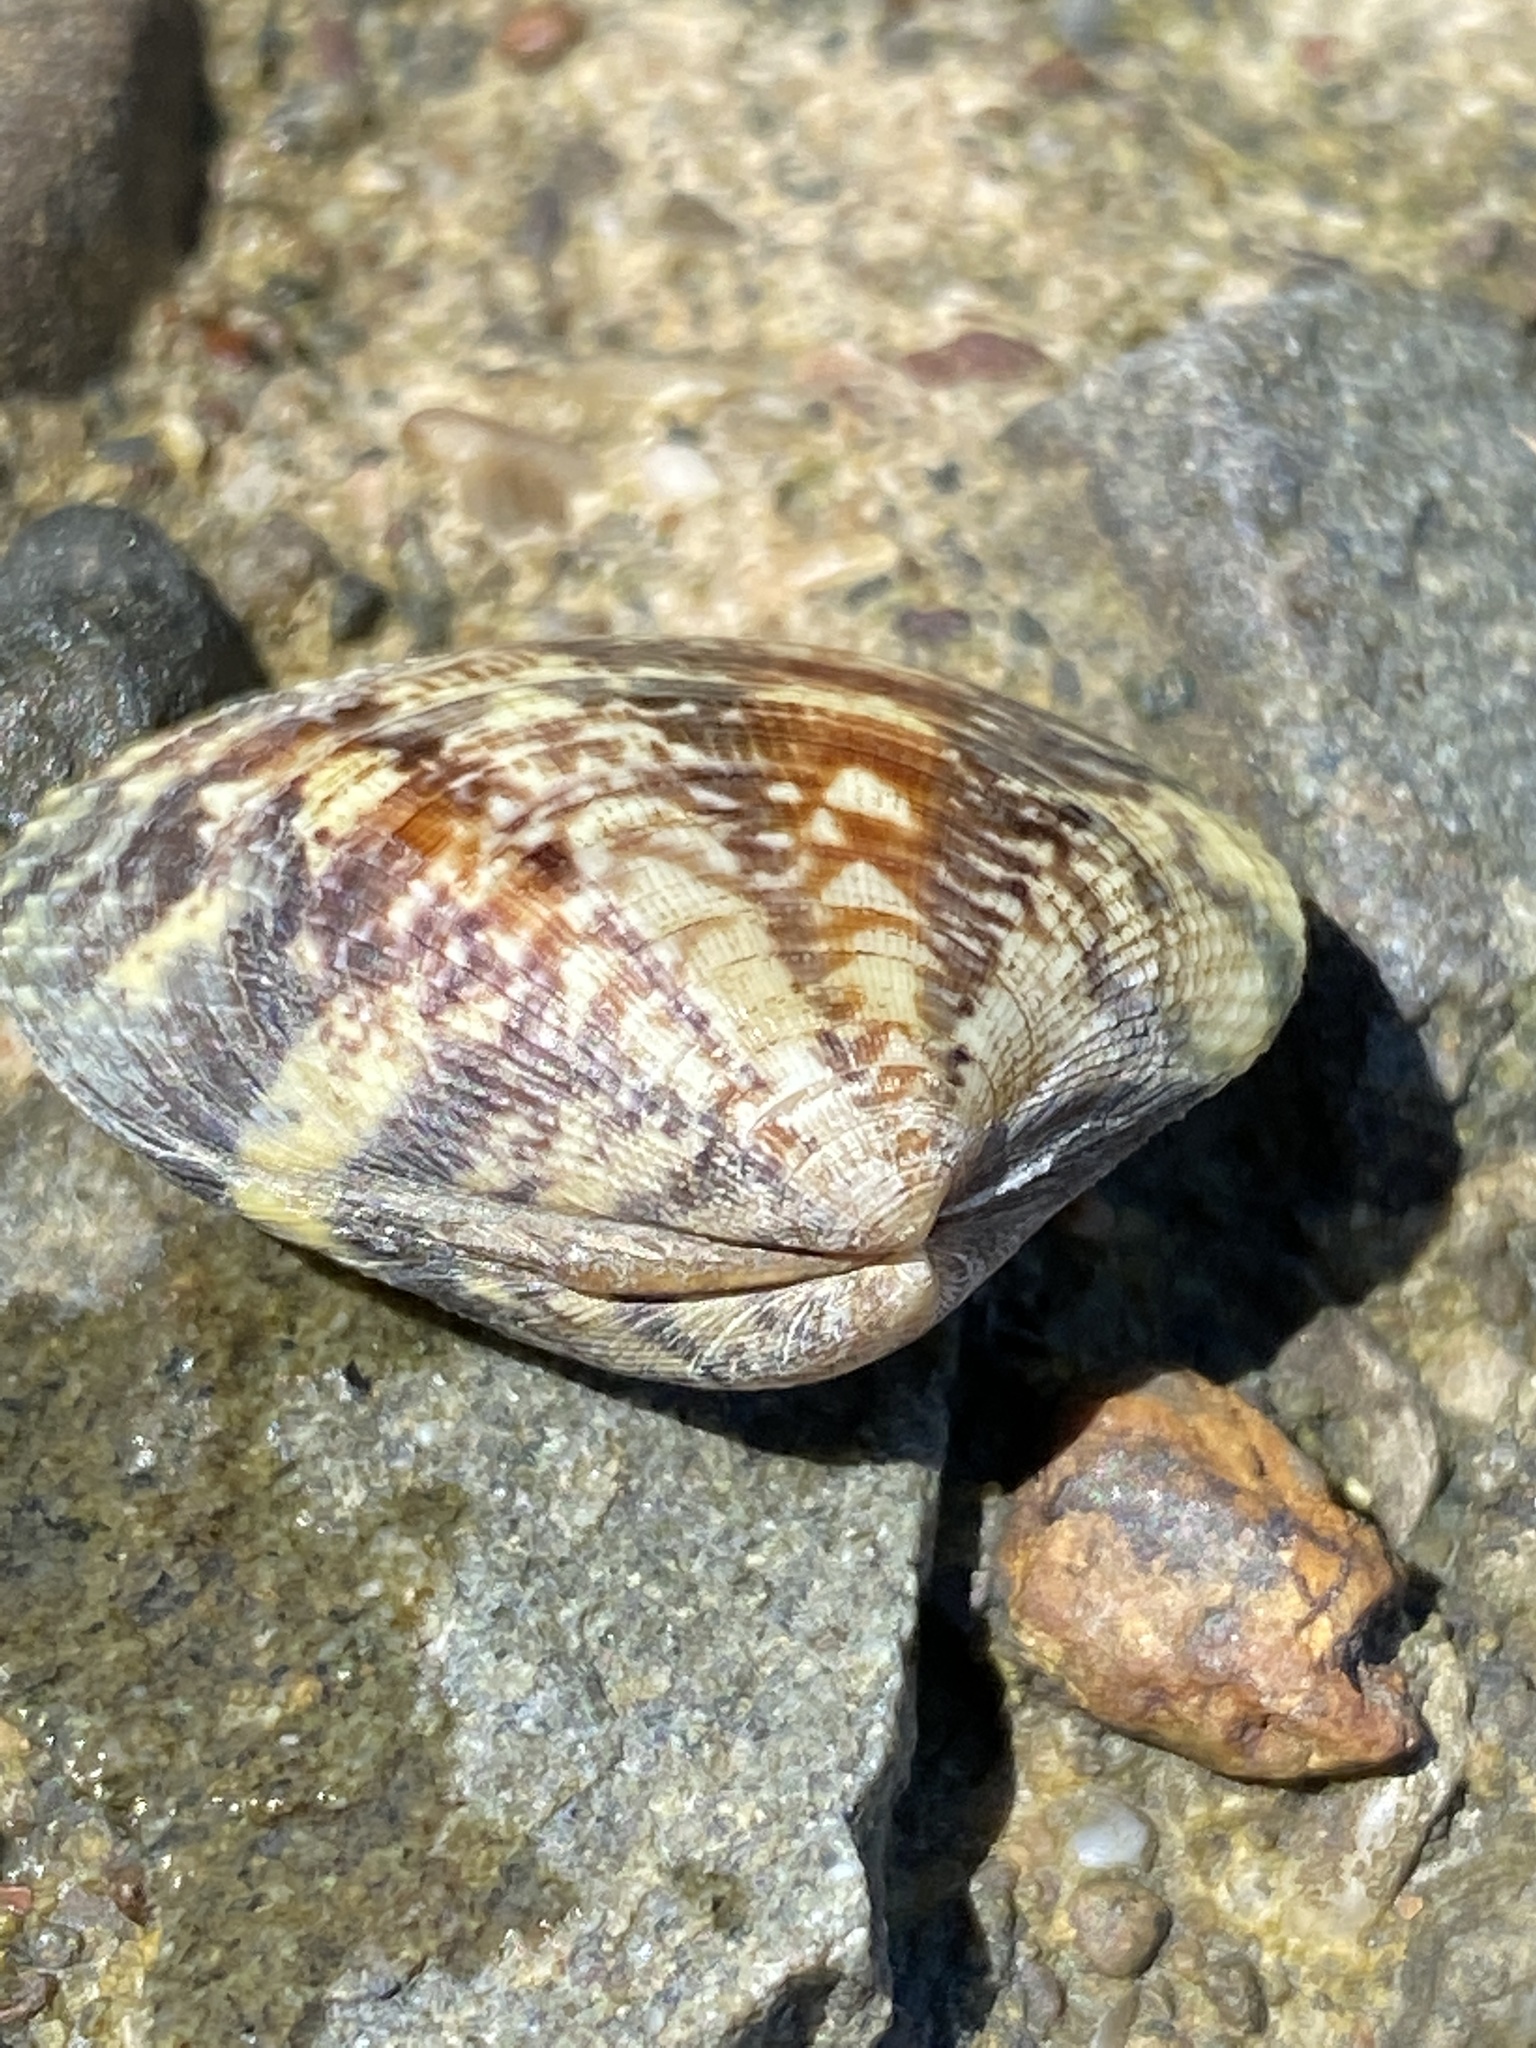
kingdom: Animalia
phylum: Mollusca
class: Bivalvia
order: Venerida
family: Veneridae
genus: Ruditapes
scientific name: Ruditapes philippinarum
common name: Manila clam
